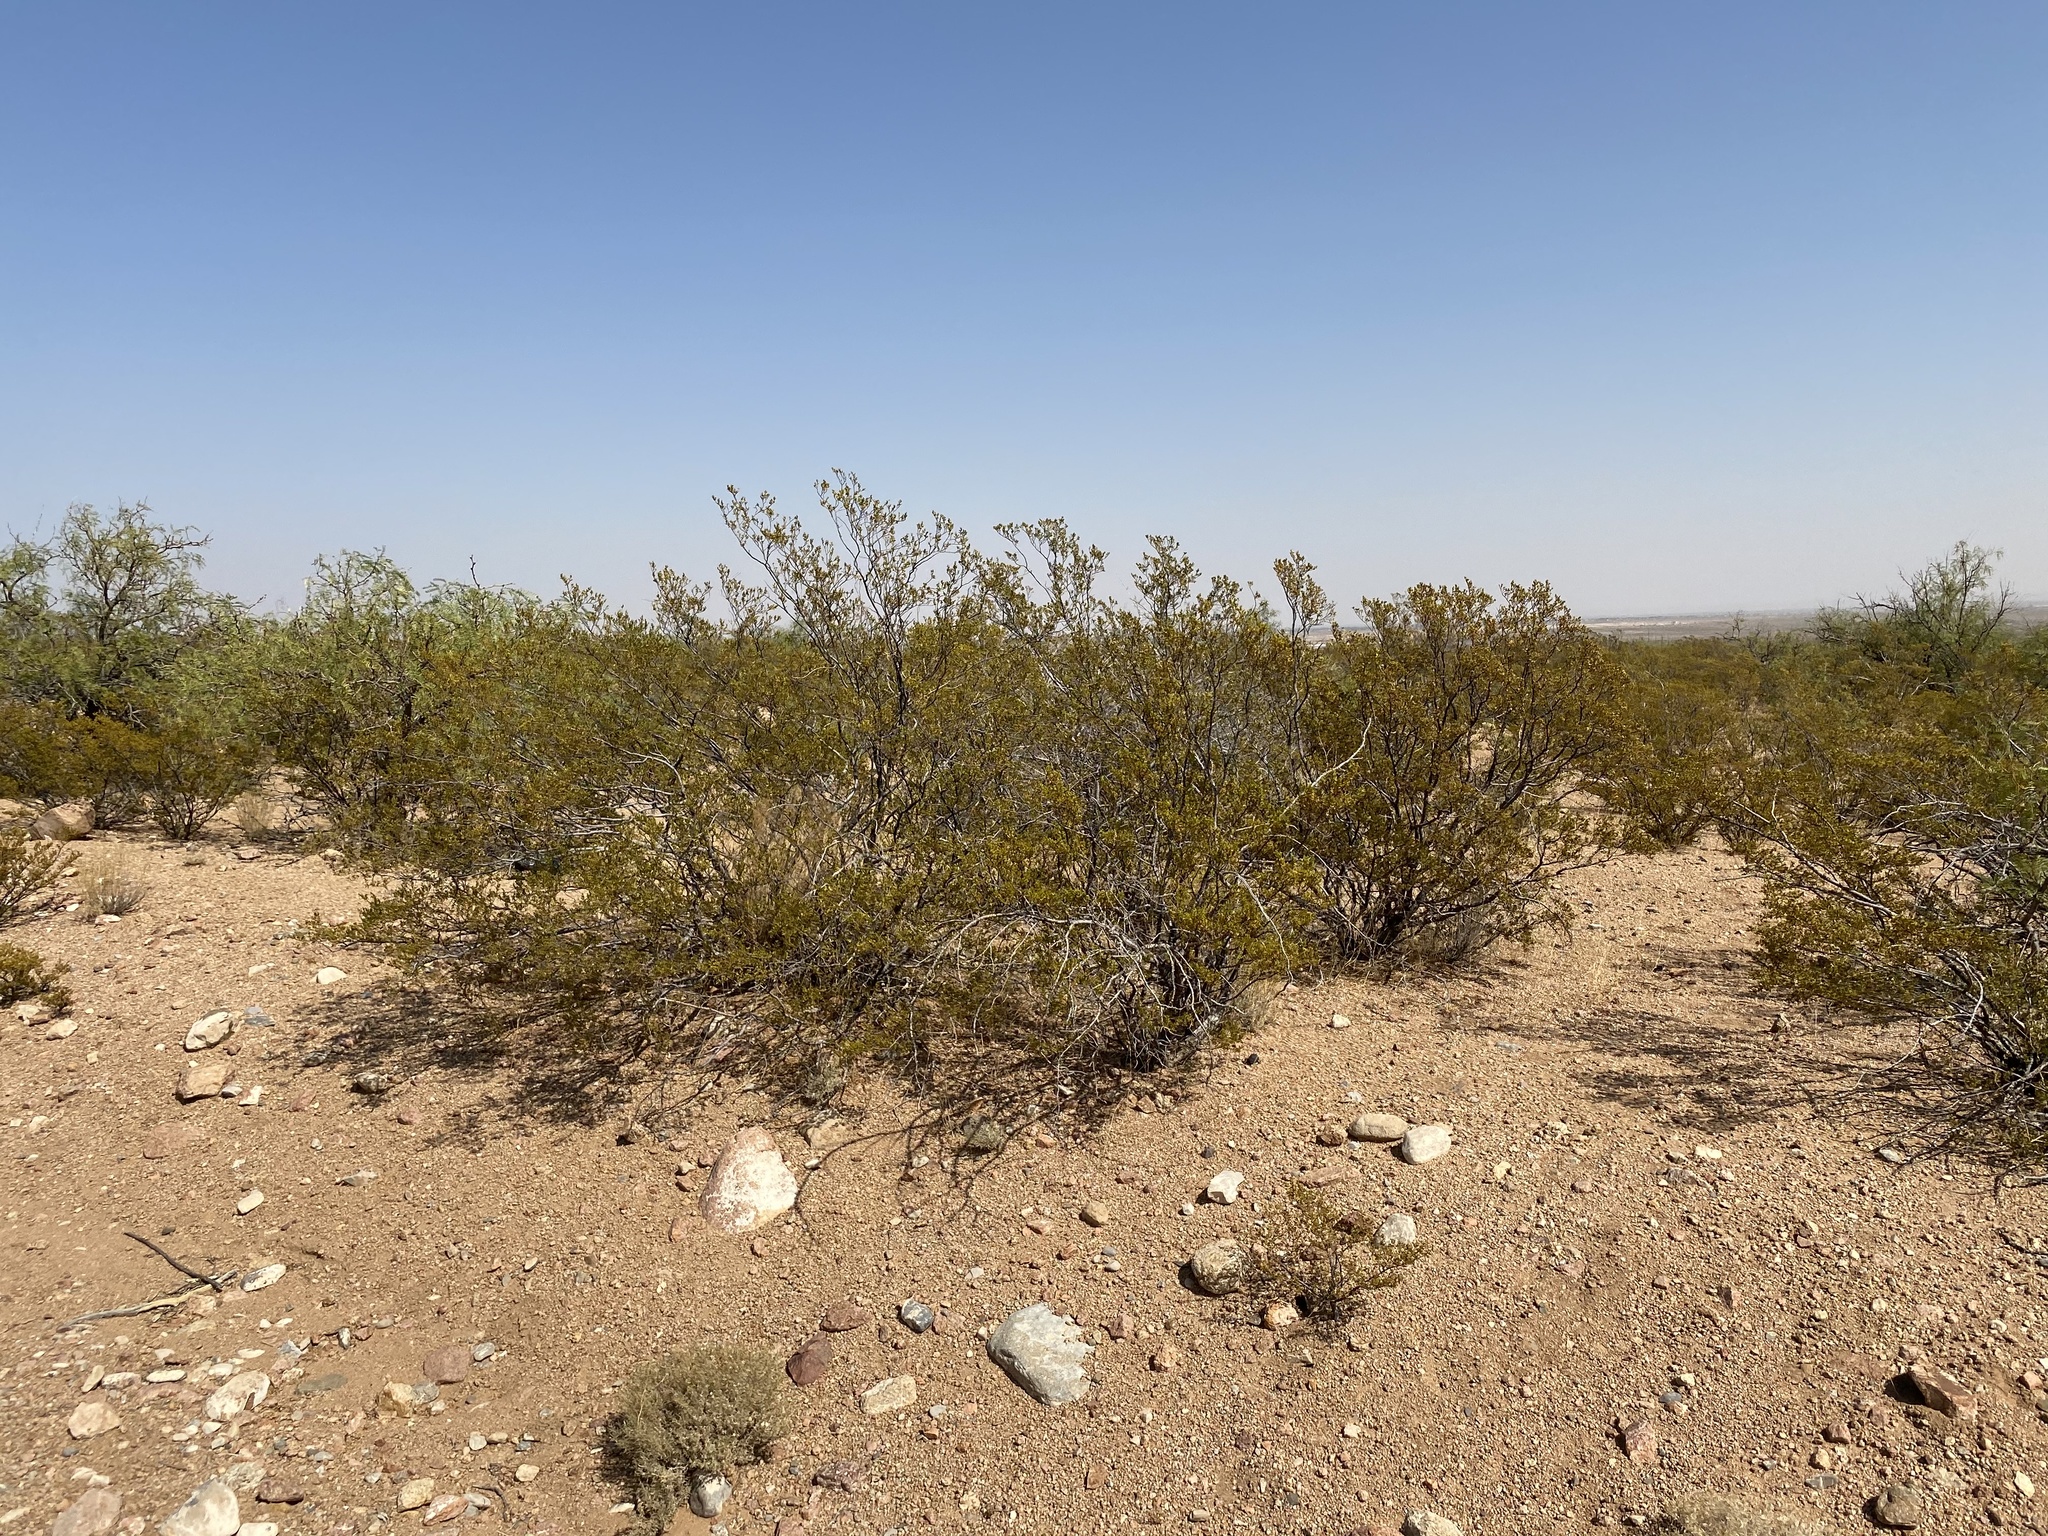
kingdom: Plantae
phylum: Tracheophyta
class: Magnoliopsida
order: Zygophyllales
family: Zygophyllaceae
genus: Larrea
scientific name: Larrea tridentata
